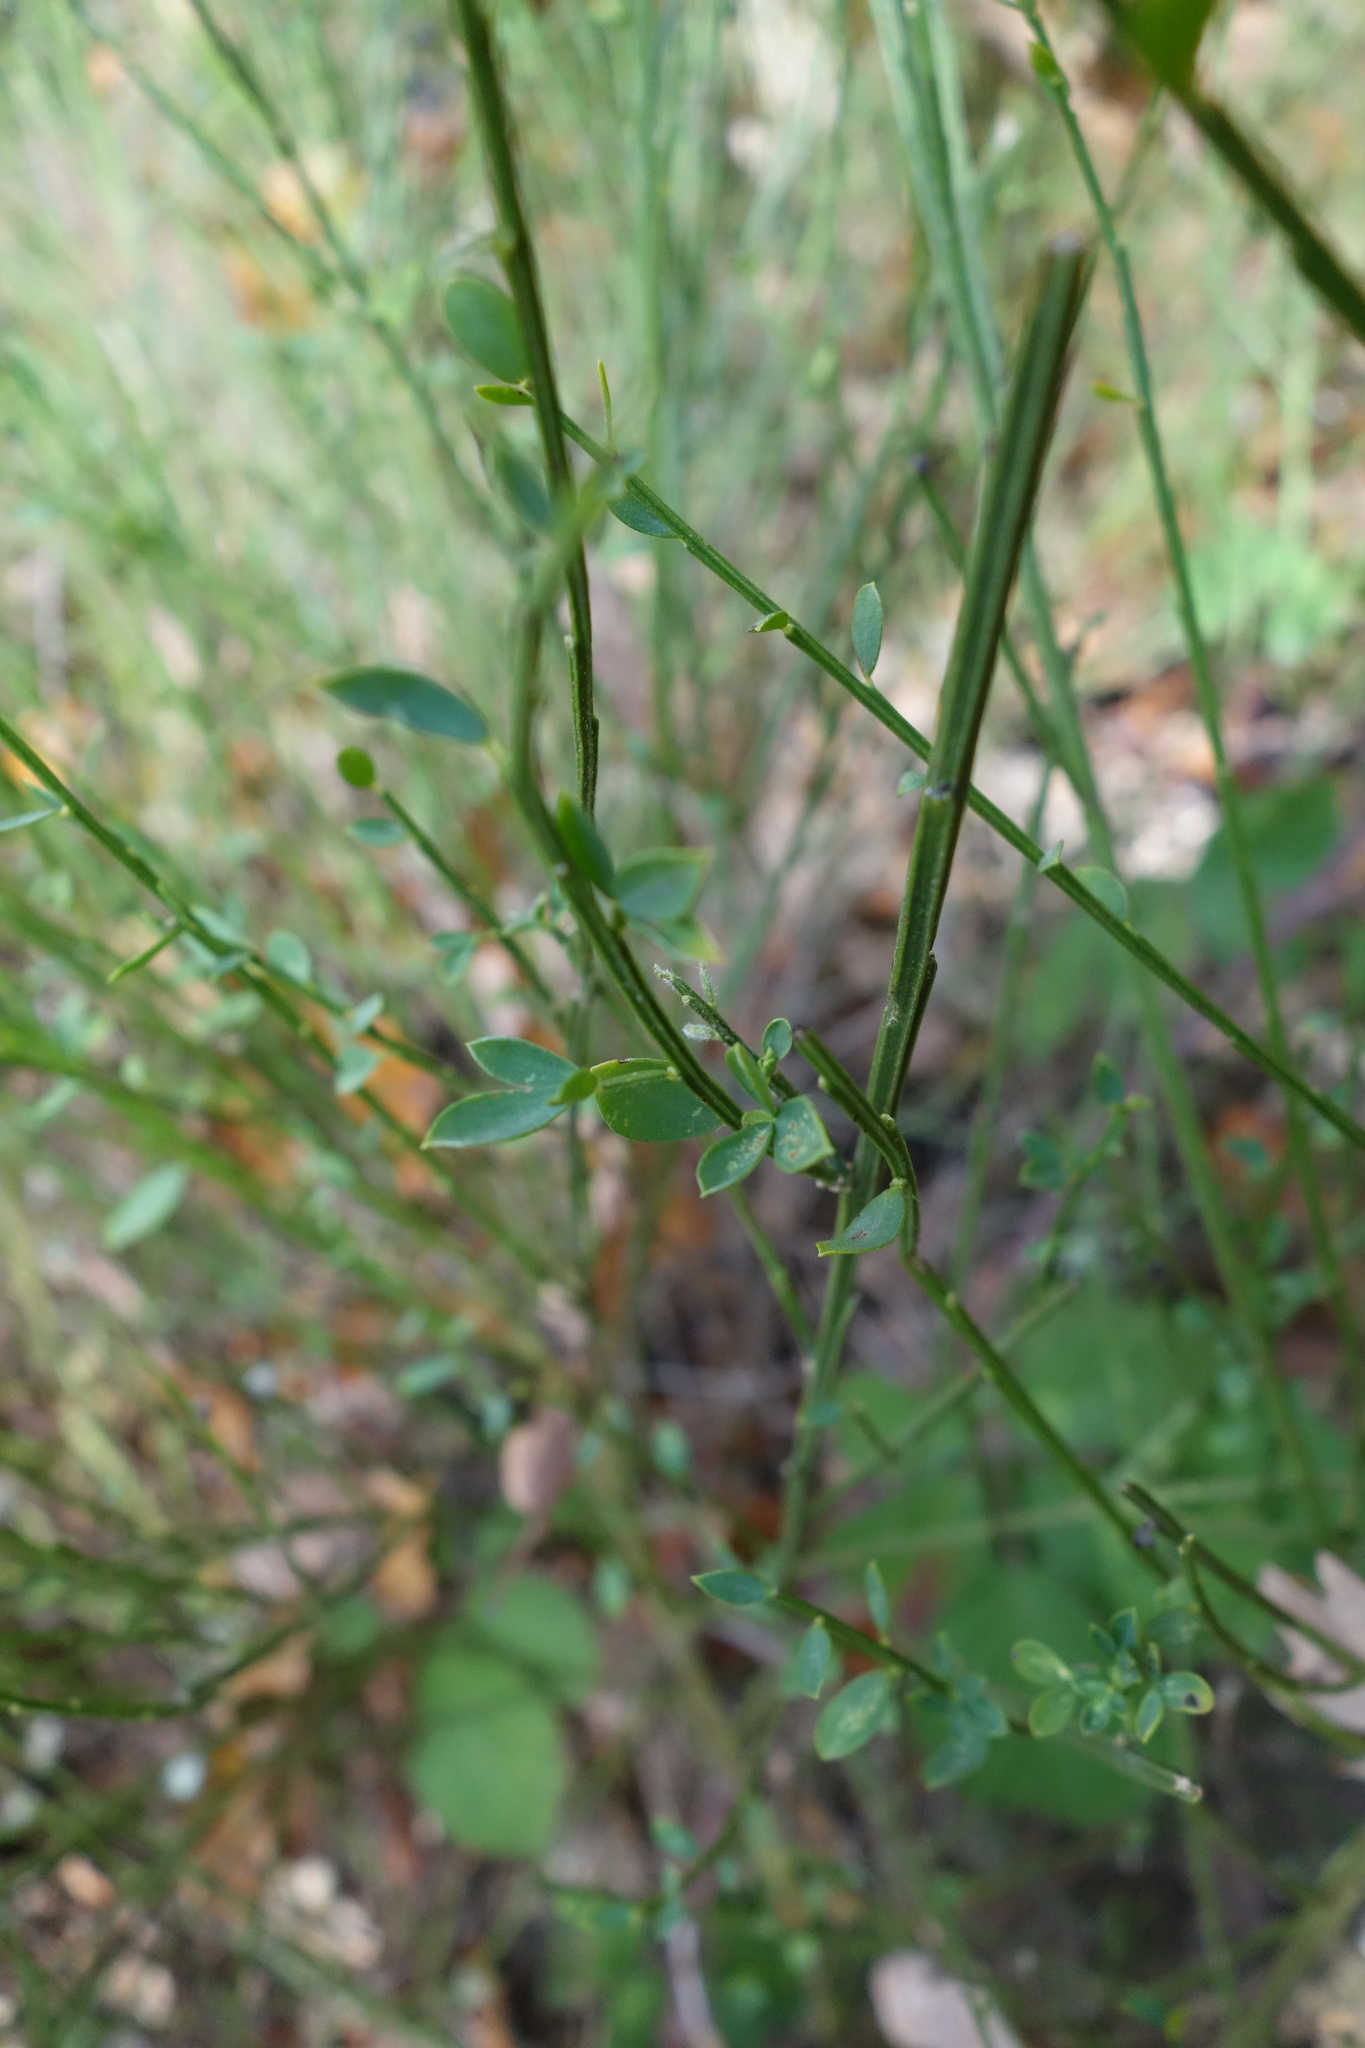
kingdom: Plantae
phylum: Tracheophyta
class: Magnoliopsida
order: Fabales
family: Fabaceae
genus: Cytisus
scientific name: Cytisus scoparius
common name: Scotch broom
